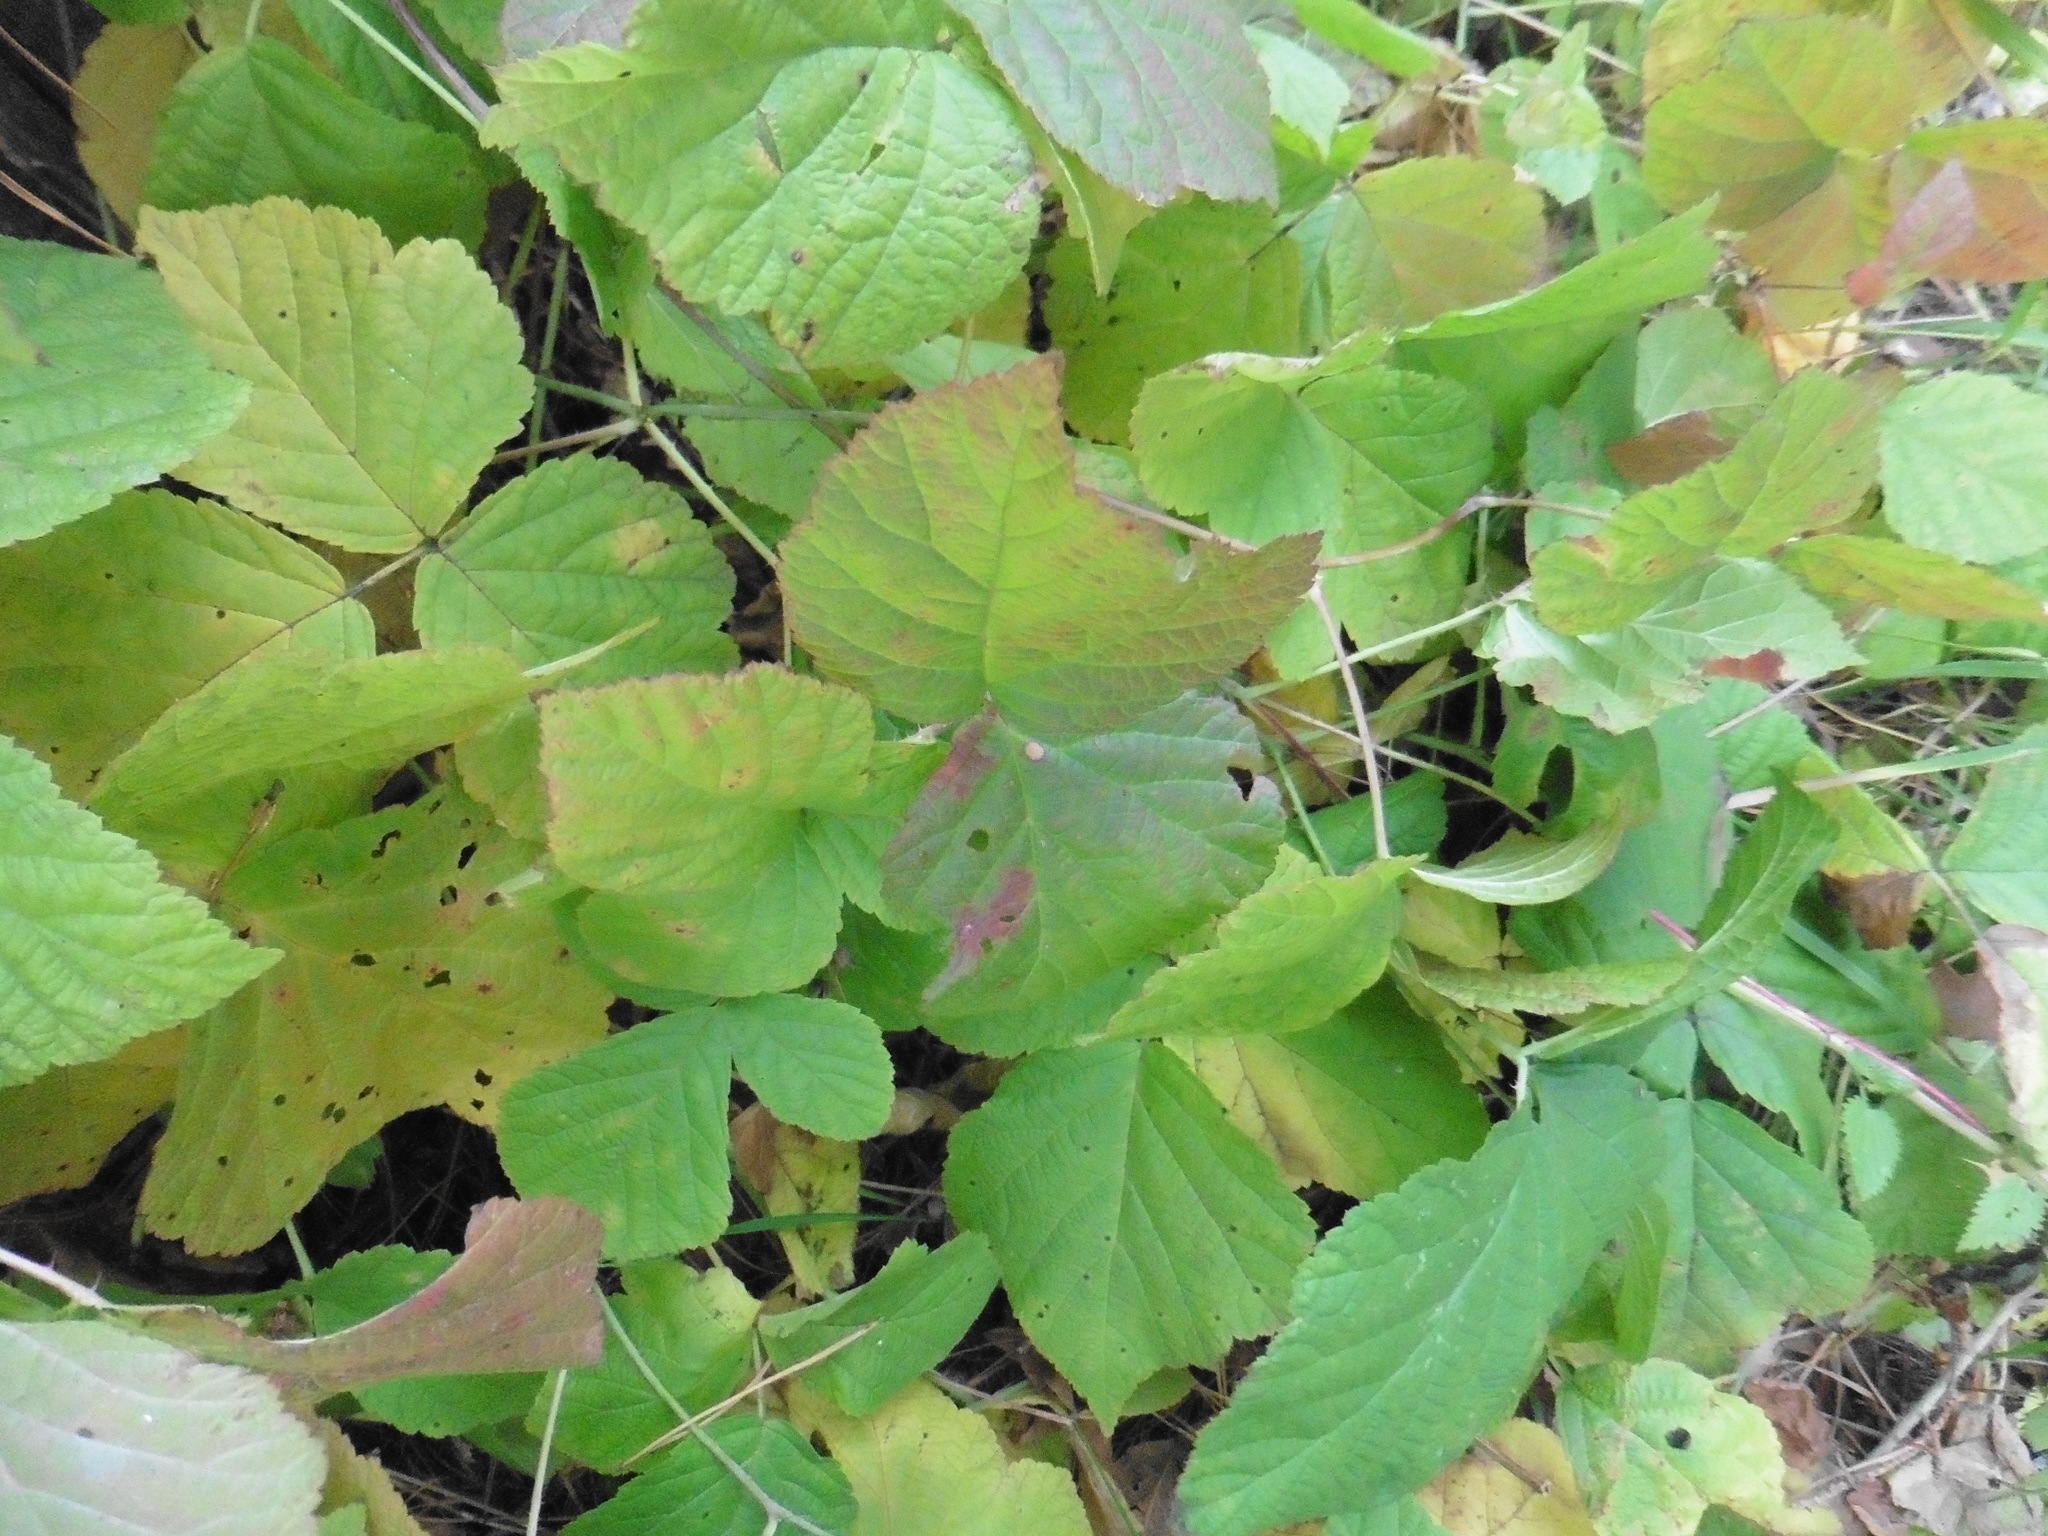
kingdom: Plantae
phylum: Tracheophyta
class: Magnoliopsida
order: Rosales
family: Rosaceae
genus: Rubus
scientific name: Rubus caesius
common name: Dewberry
